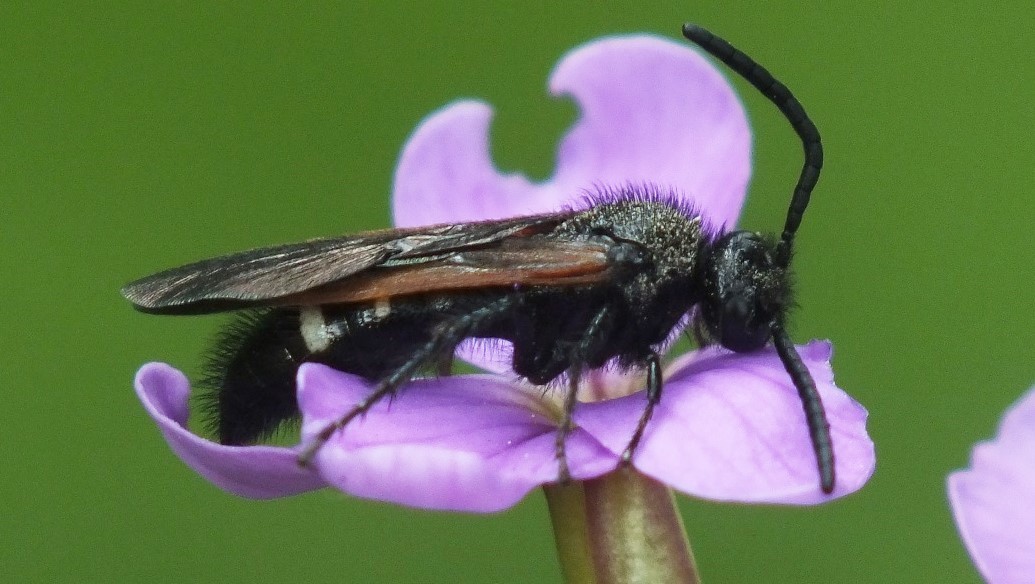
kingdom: Animalia
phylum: Arthropoda
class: Insecta
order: Hymenoptera
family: Vespidae
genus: Vespa
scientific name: Vespa sexmaculata
